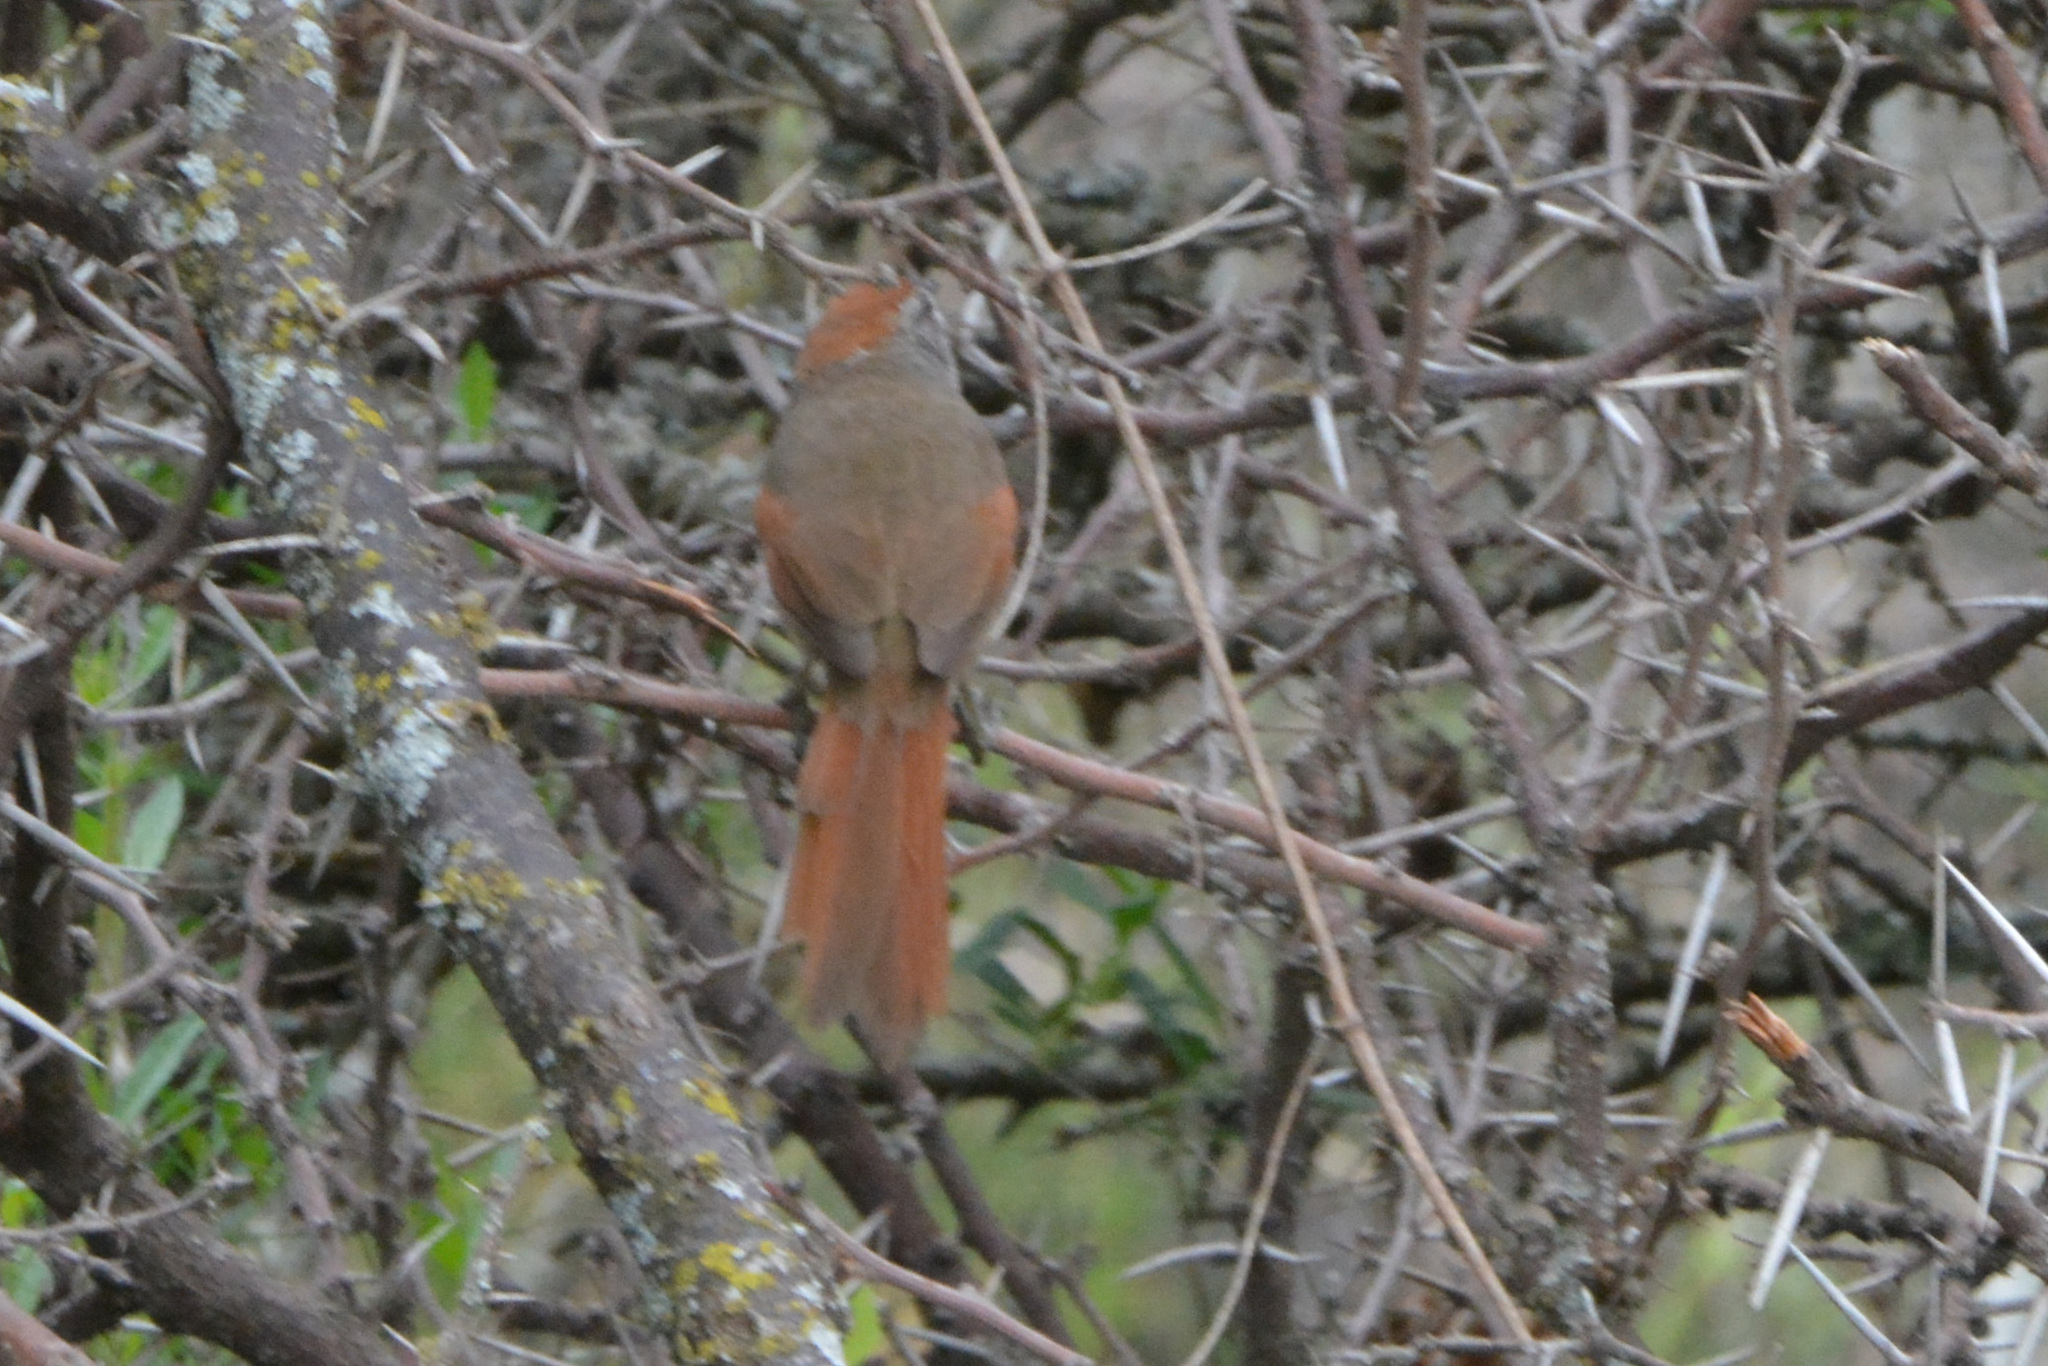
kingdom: Animalia
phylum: Chordata
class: Aves
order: Passeriformes
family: Furnariidae
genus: Synallaxis
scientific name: Synallaxis frontalis
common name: Sooty-fronted spinetail
